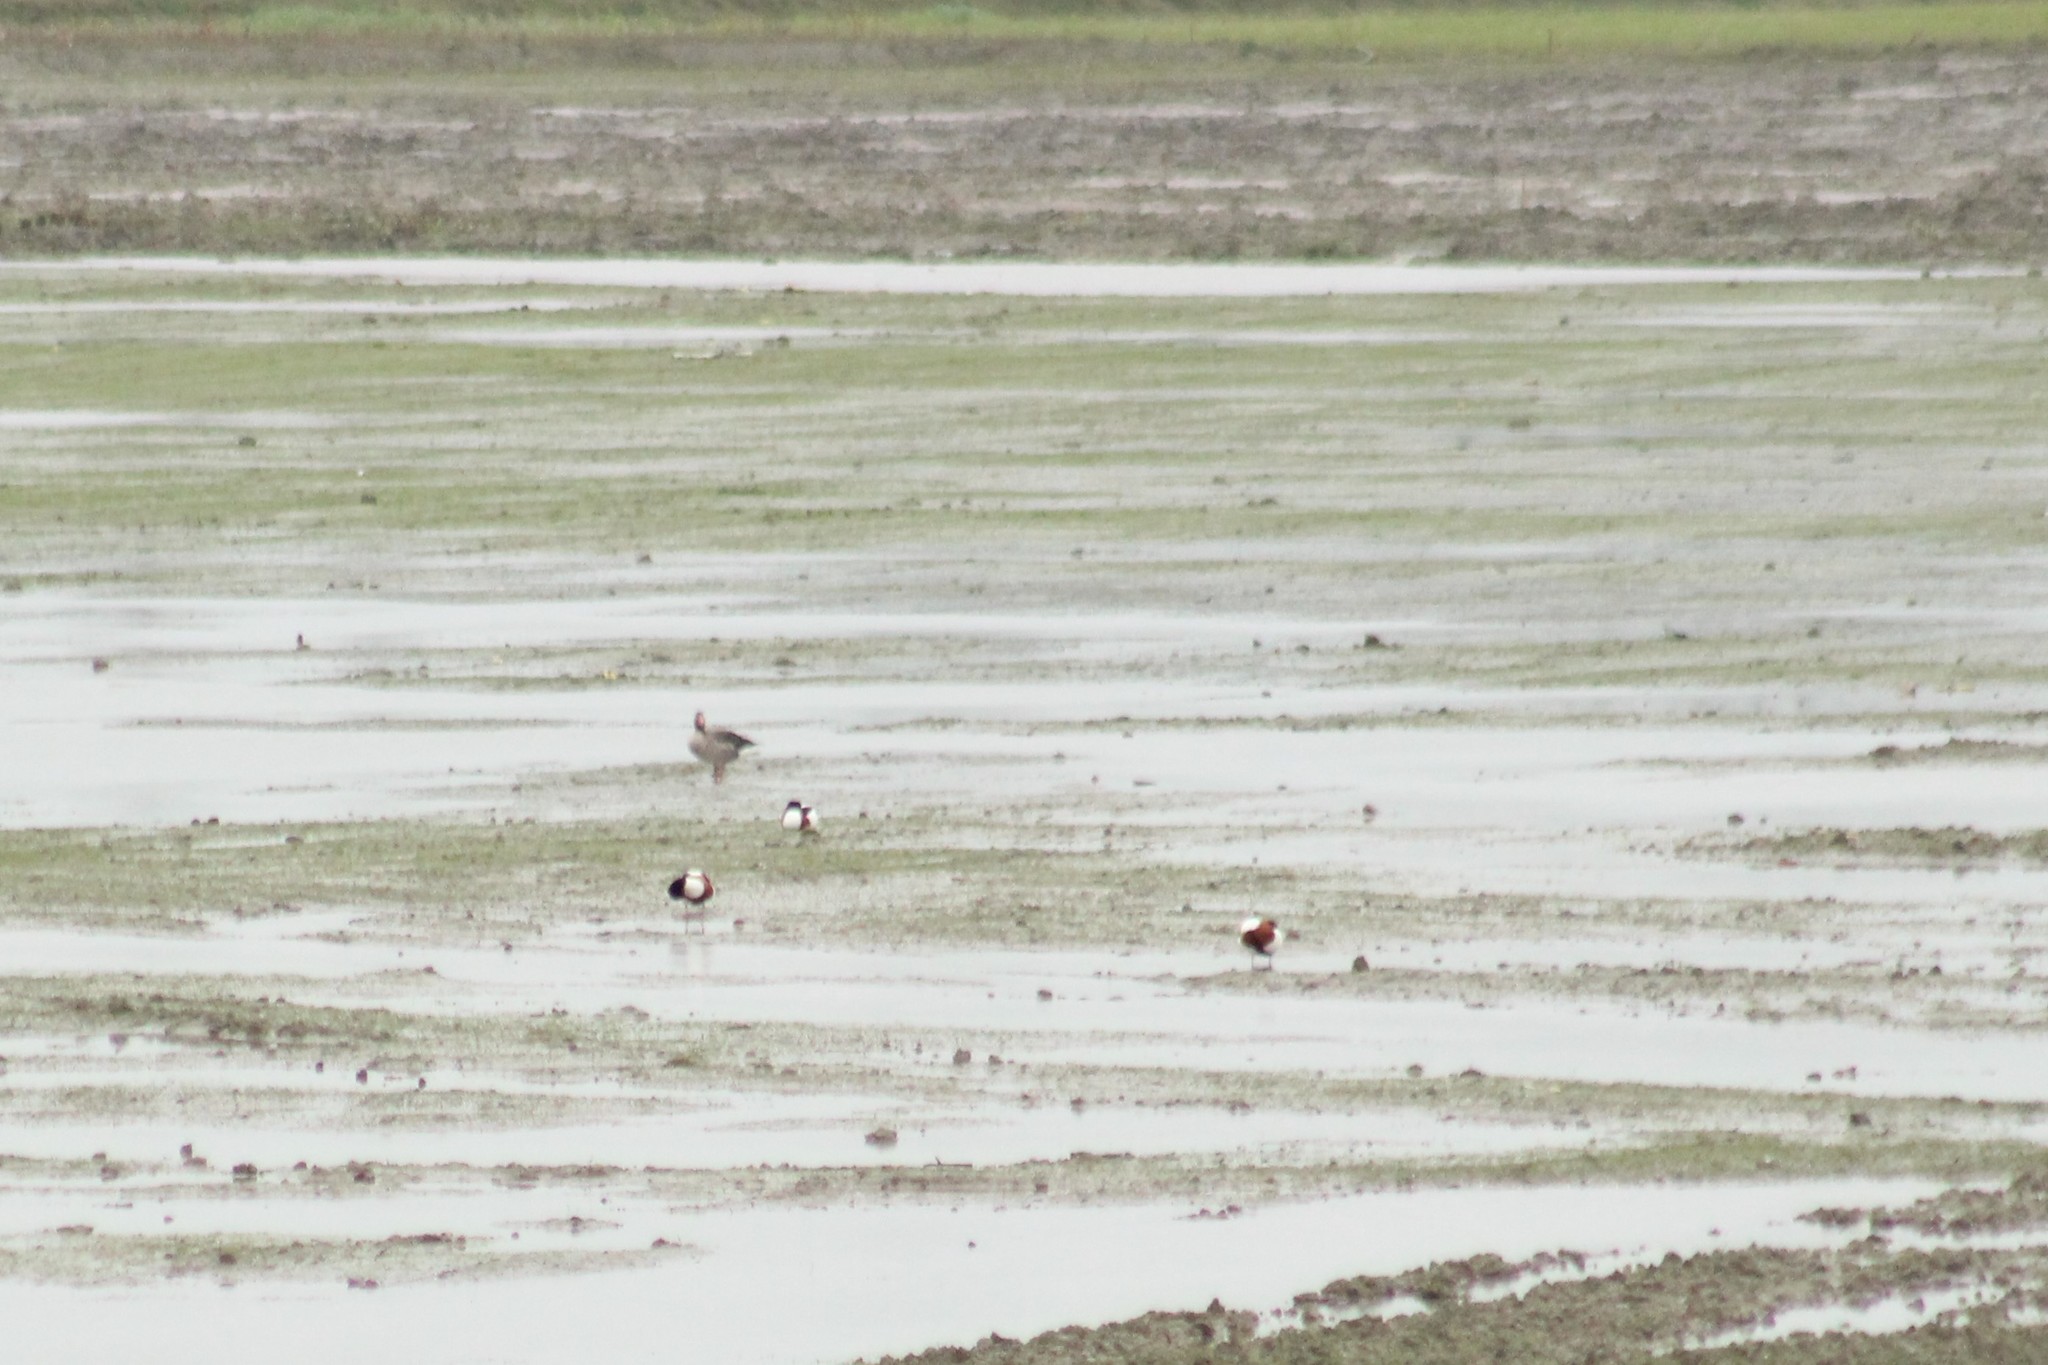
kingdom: Animalia
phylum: Chordata
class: Aves
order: Anseriformes
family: Anatidae
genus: Tadorna
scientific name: Tadorna tadorna
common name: Common shelduck
